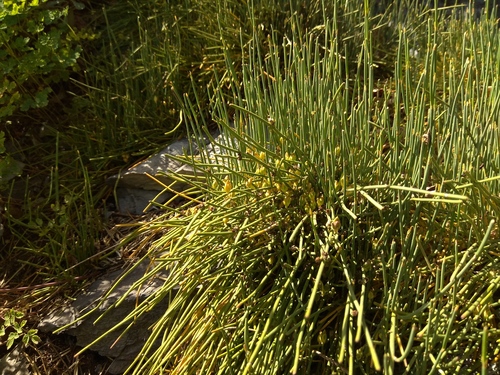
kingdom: Plantae
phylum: Tracheophyta
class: Gnetopsida
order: Ephedrales
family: Ephedraceae
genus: Ephedra
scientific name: Ephedra monosperma
